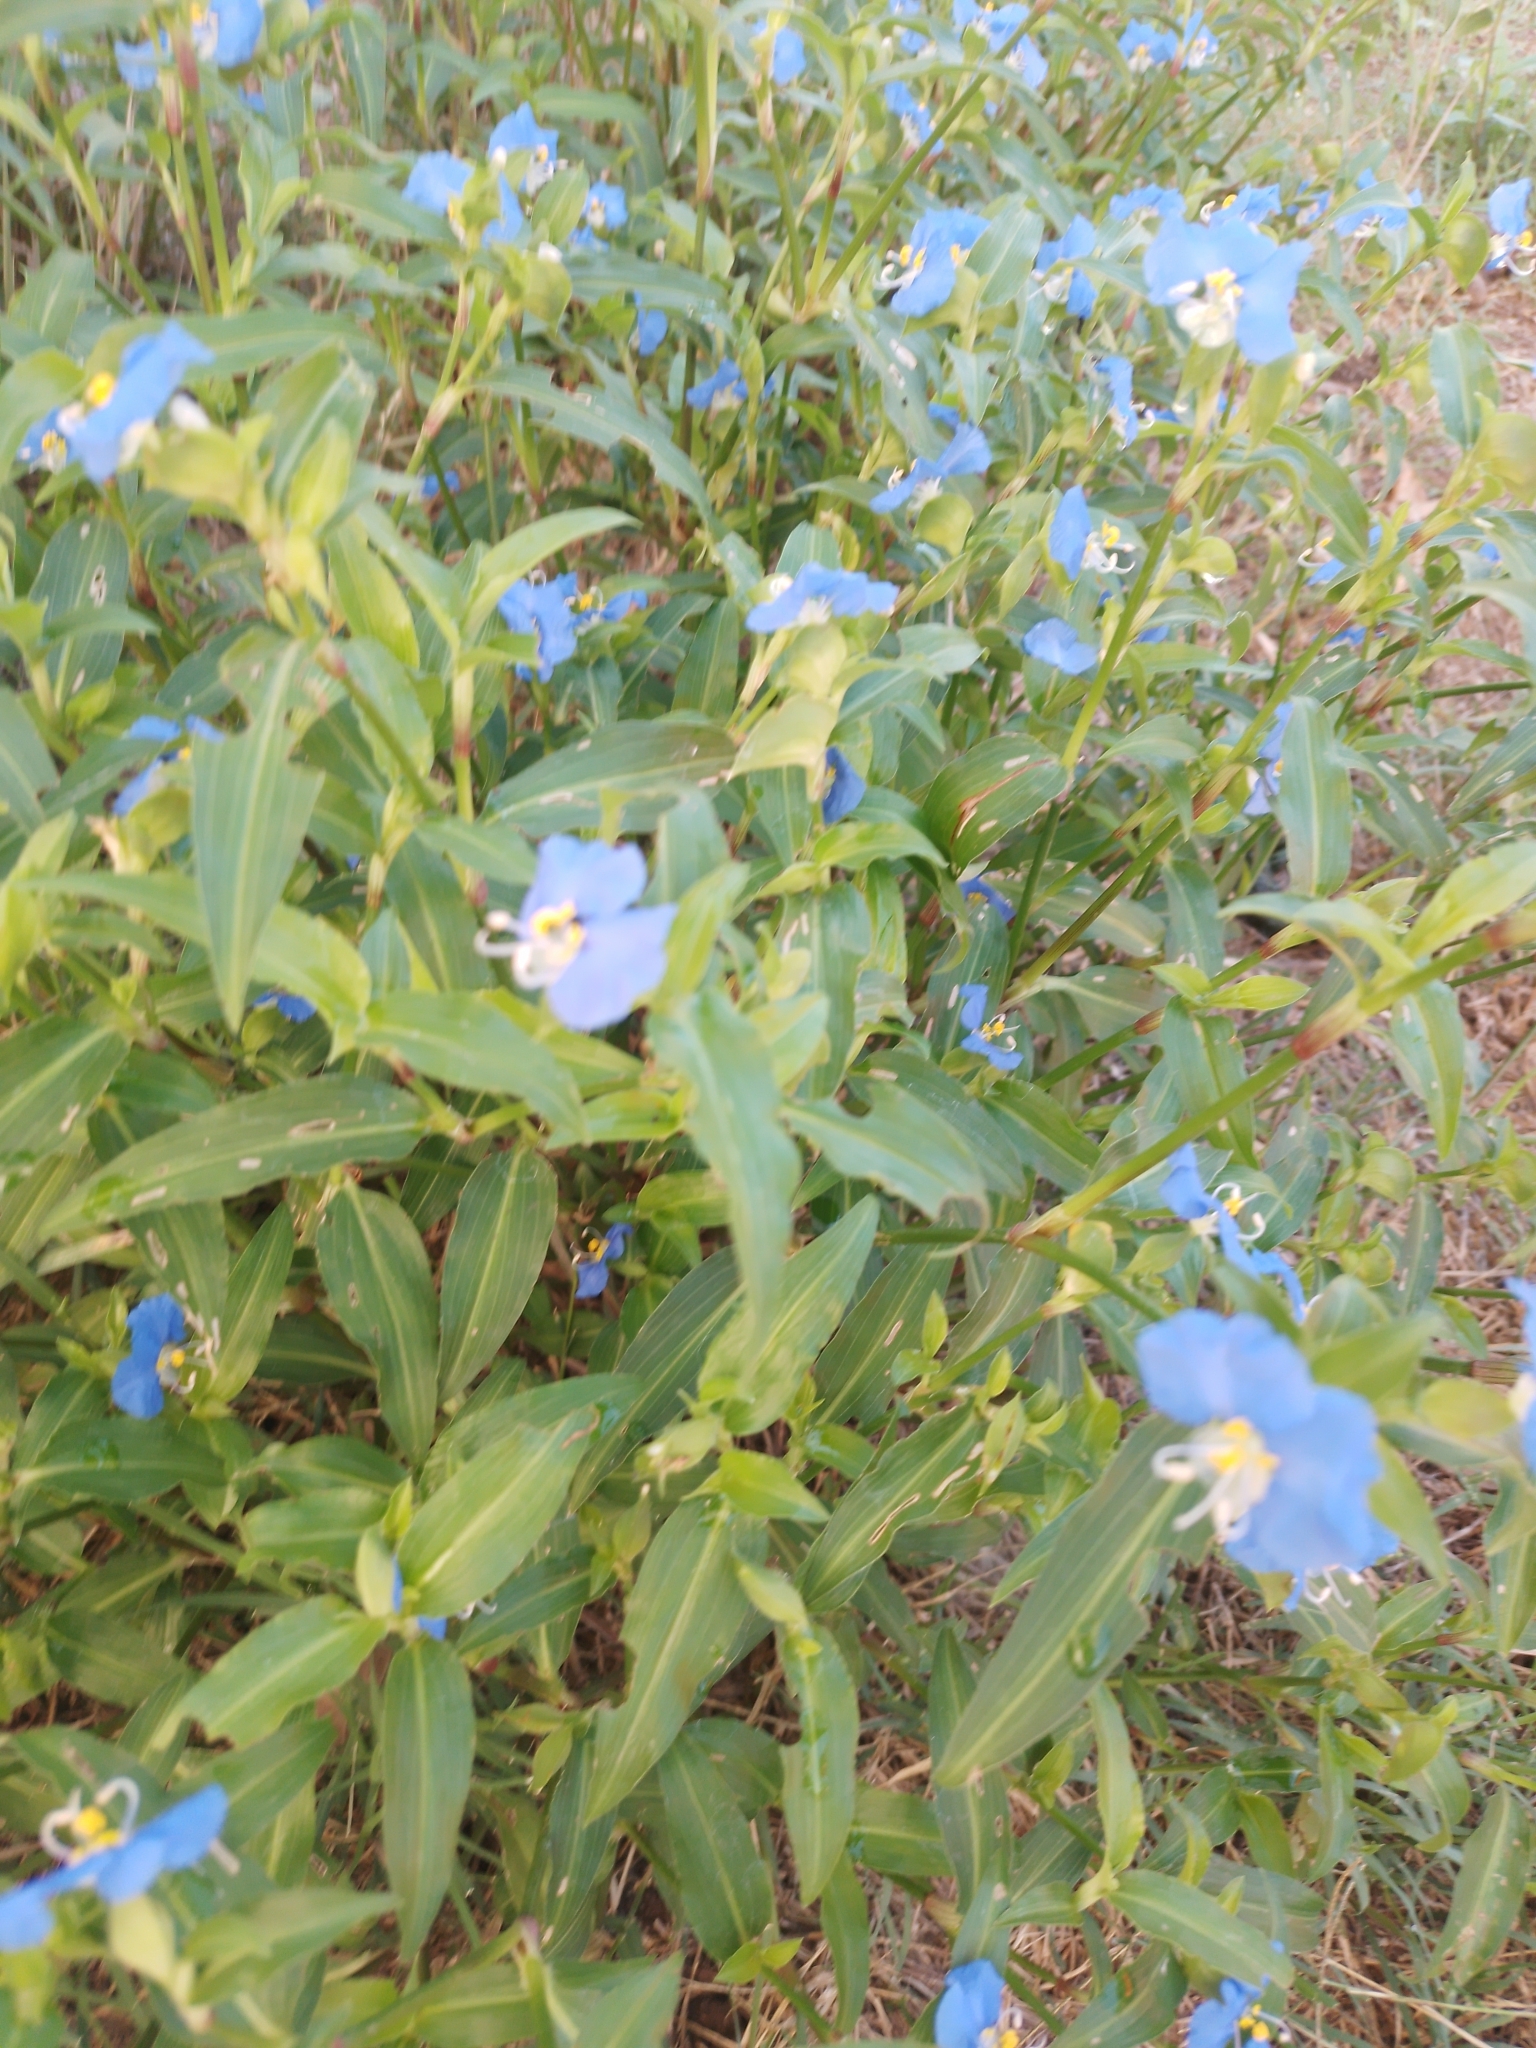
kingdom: Plantae
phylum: Tracheophyta
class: Liliopsida
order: Commelinales
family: Commelinaceae
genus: Commelina
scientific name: Commelina erecta
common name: Blousel blommetjie
